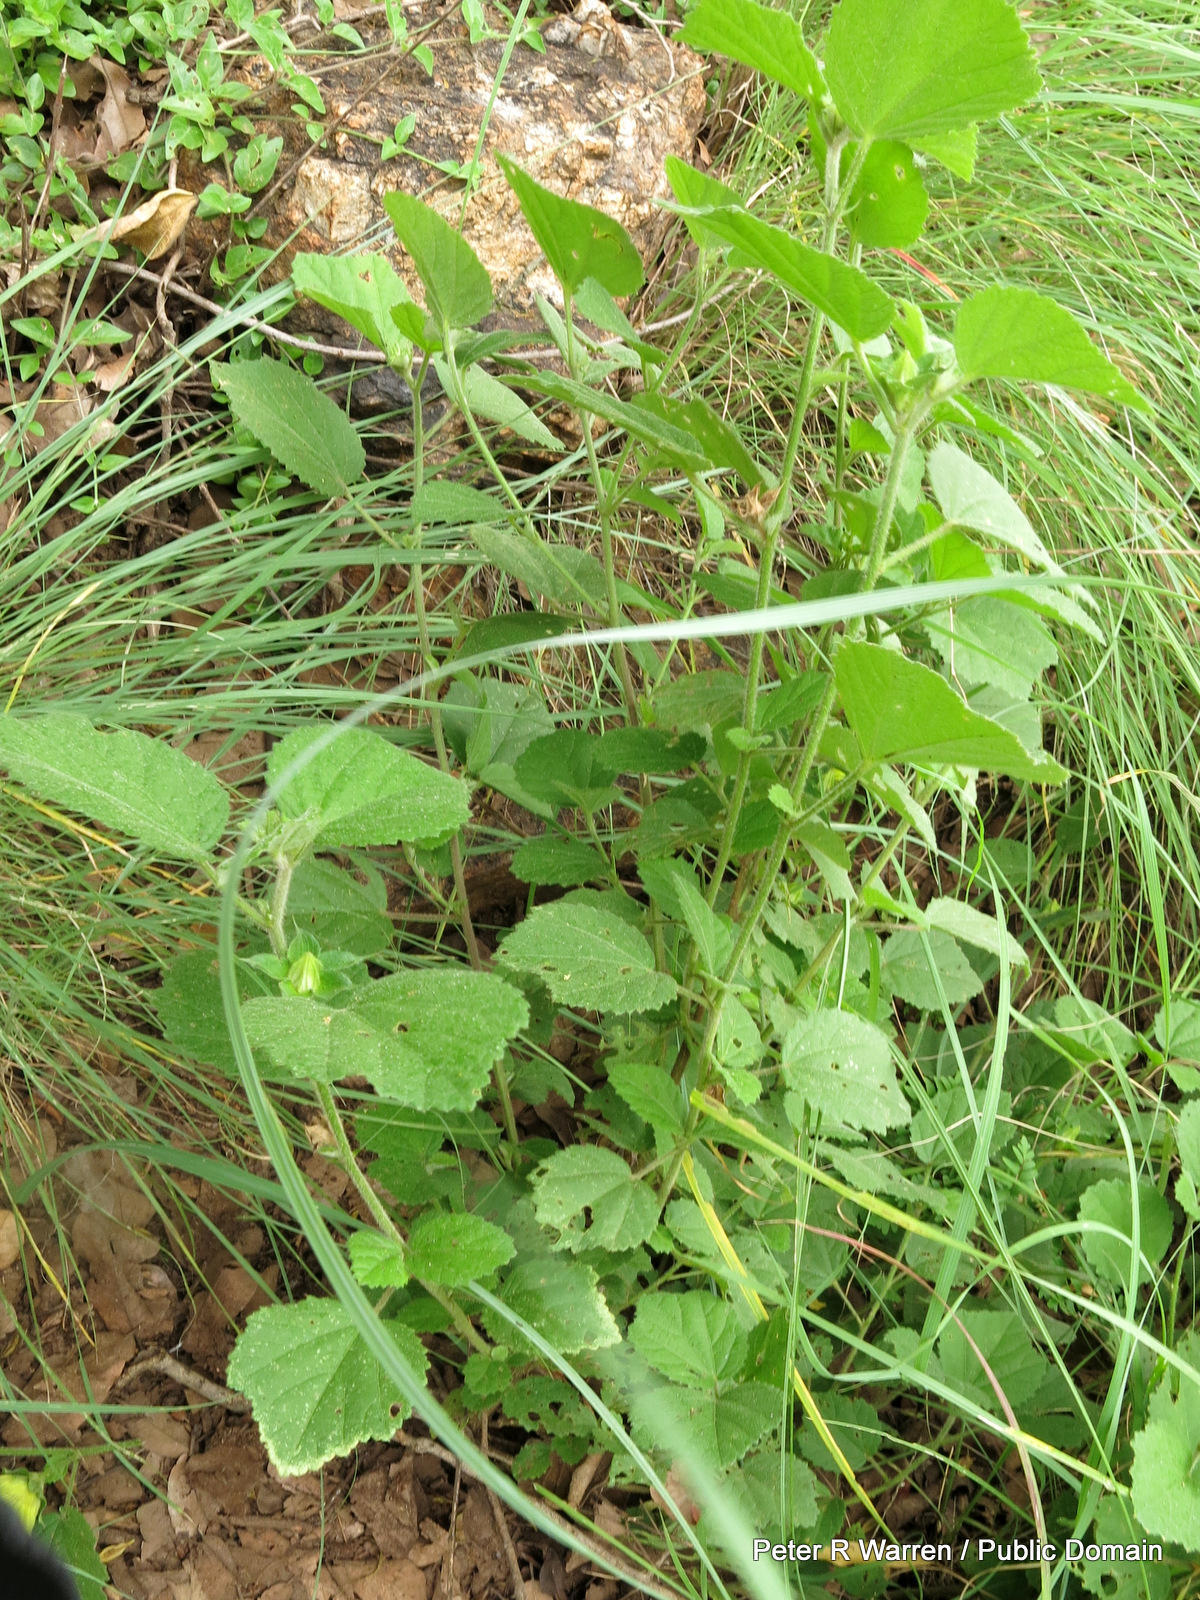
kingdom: Plantae
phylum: Tracheophyta
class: Magnoliopsida
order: Malvales
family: Malvaceae
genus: Hibiscus
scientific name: Hibiscus calyphyllus
